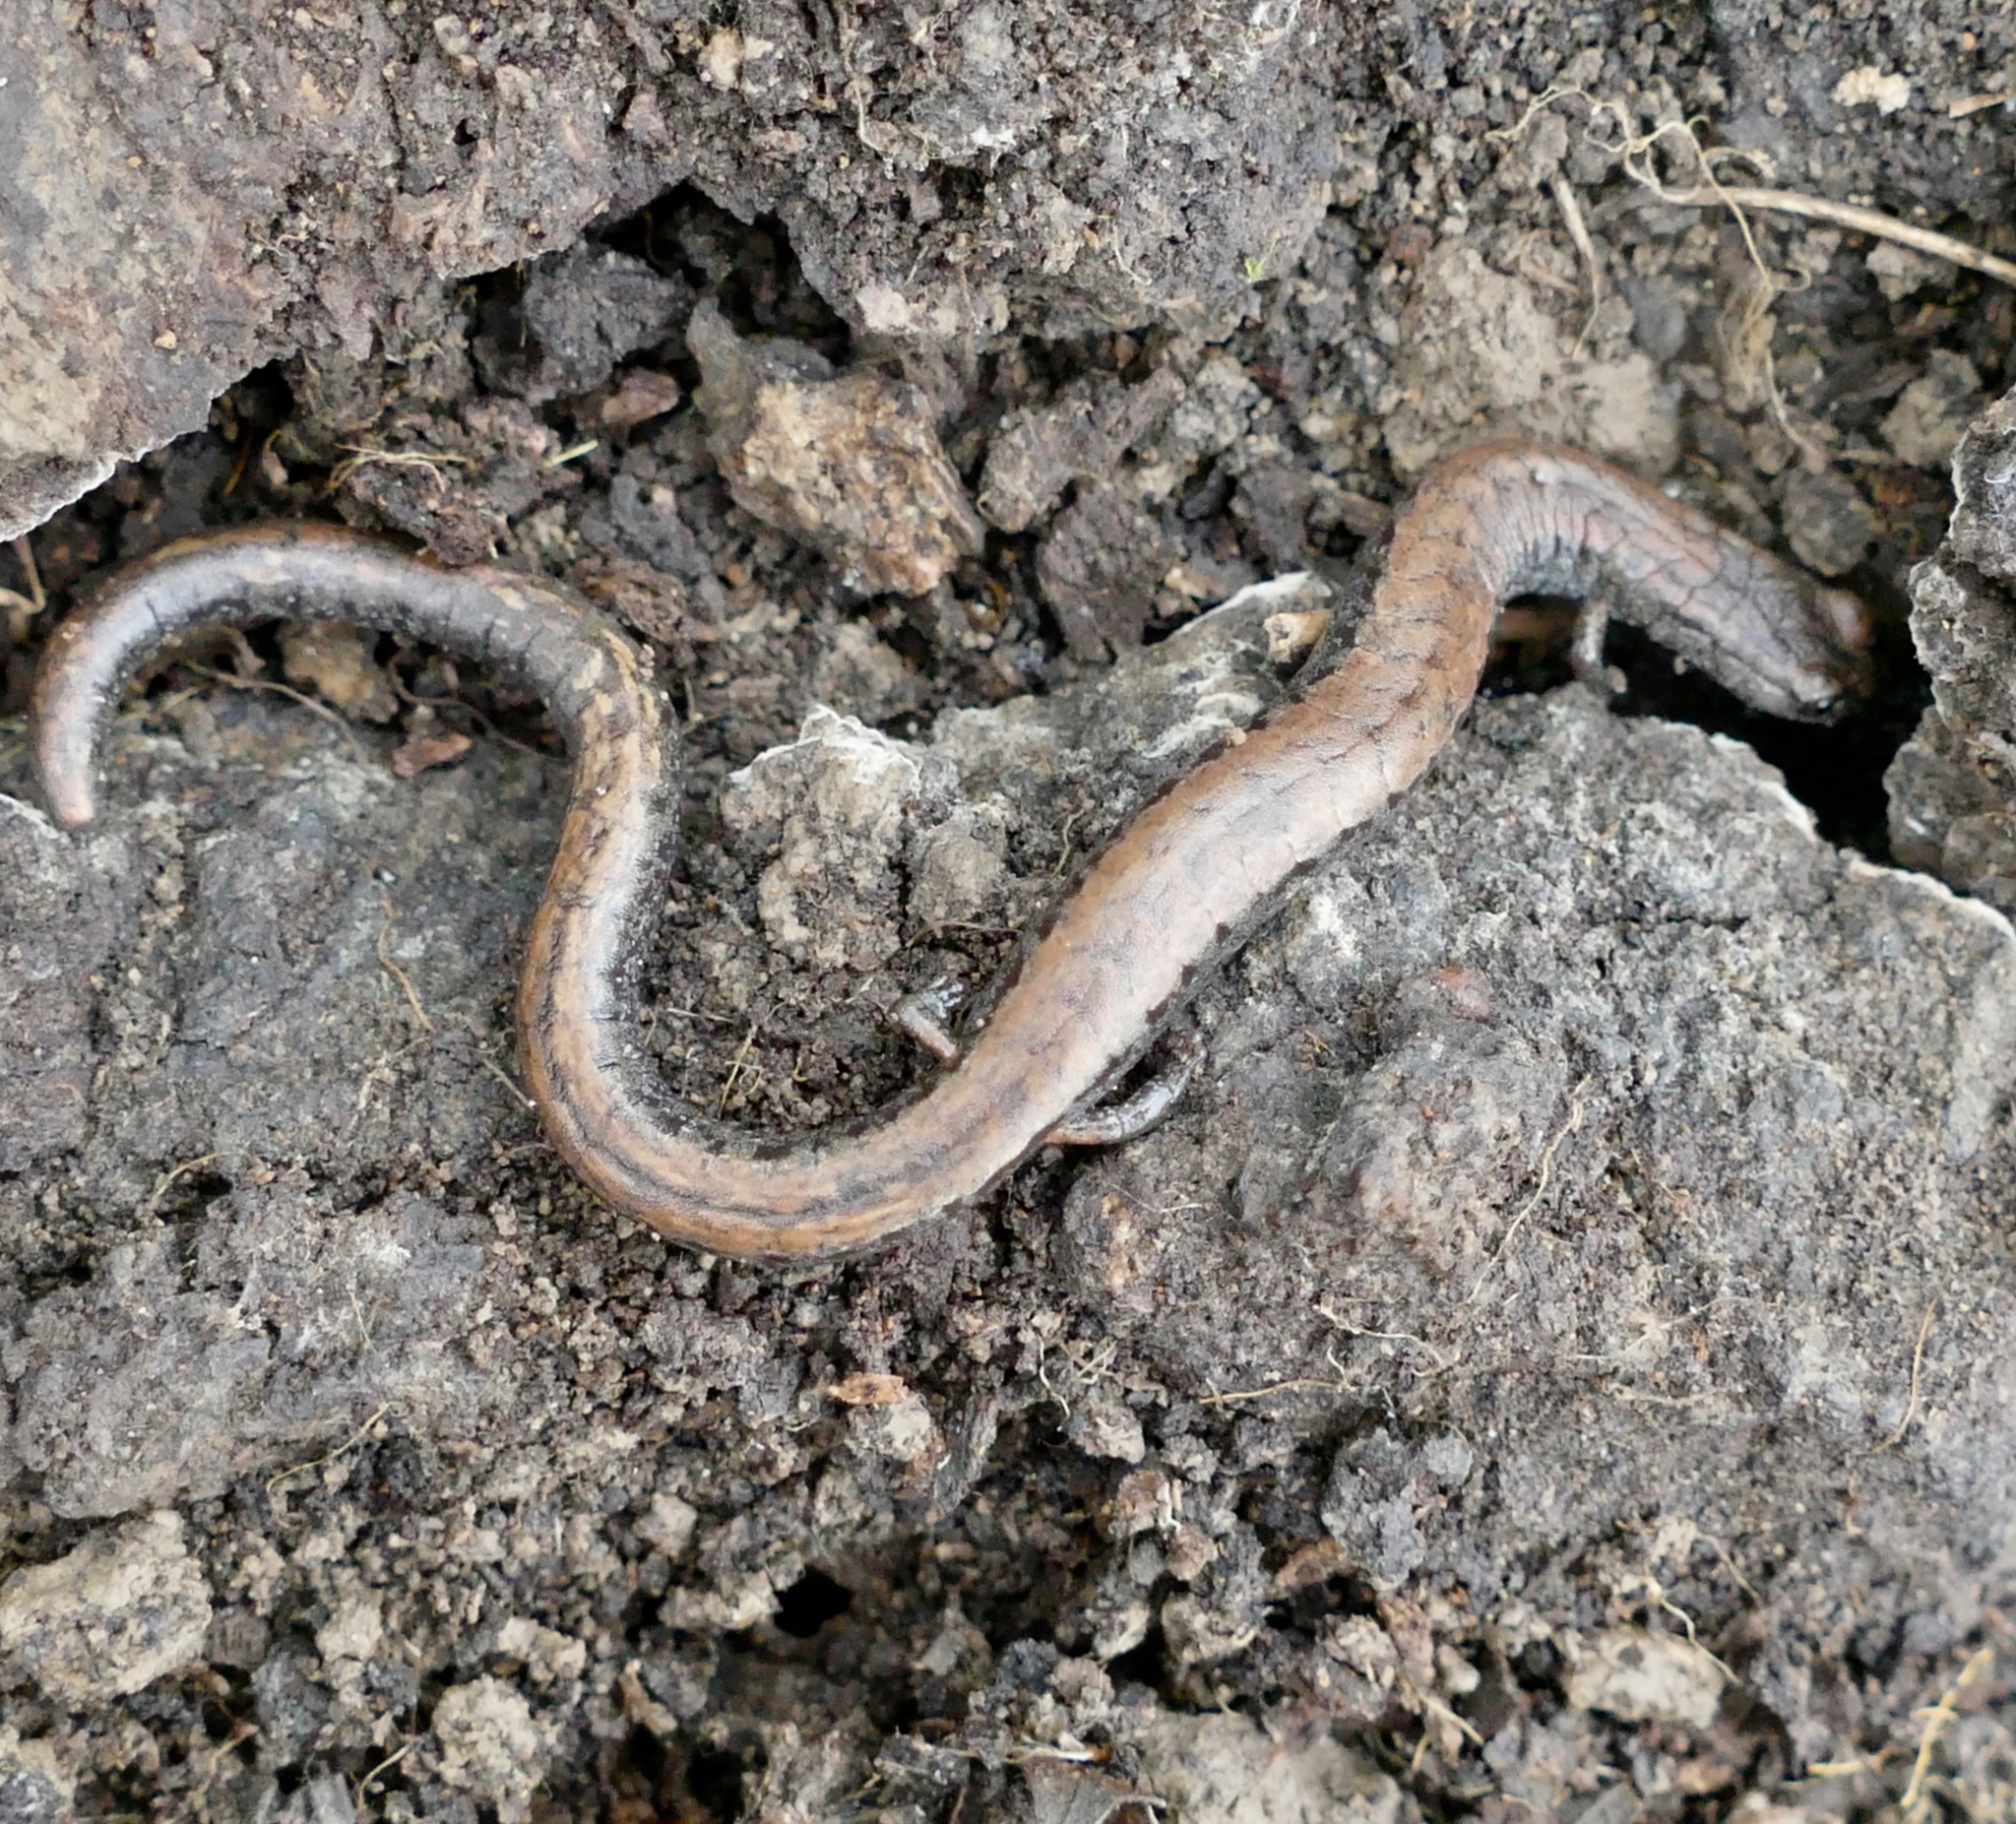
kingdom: Animalia
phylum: Chordata
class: Amphibia
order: Caudata
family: Plethodontidae
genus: Batrachoseps
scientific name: Batrachoseps attenuatus
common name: California slender salamander
